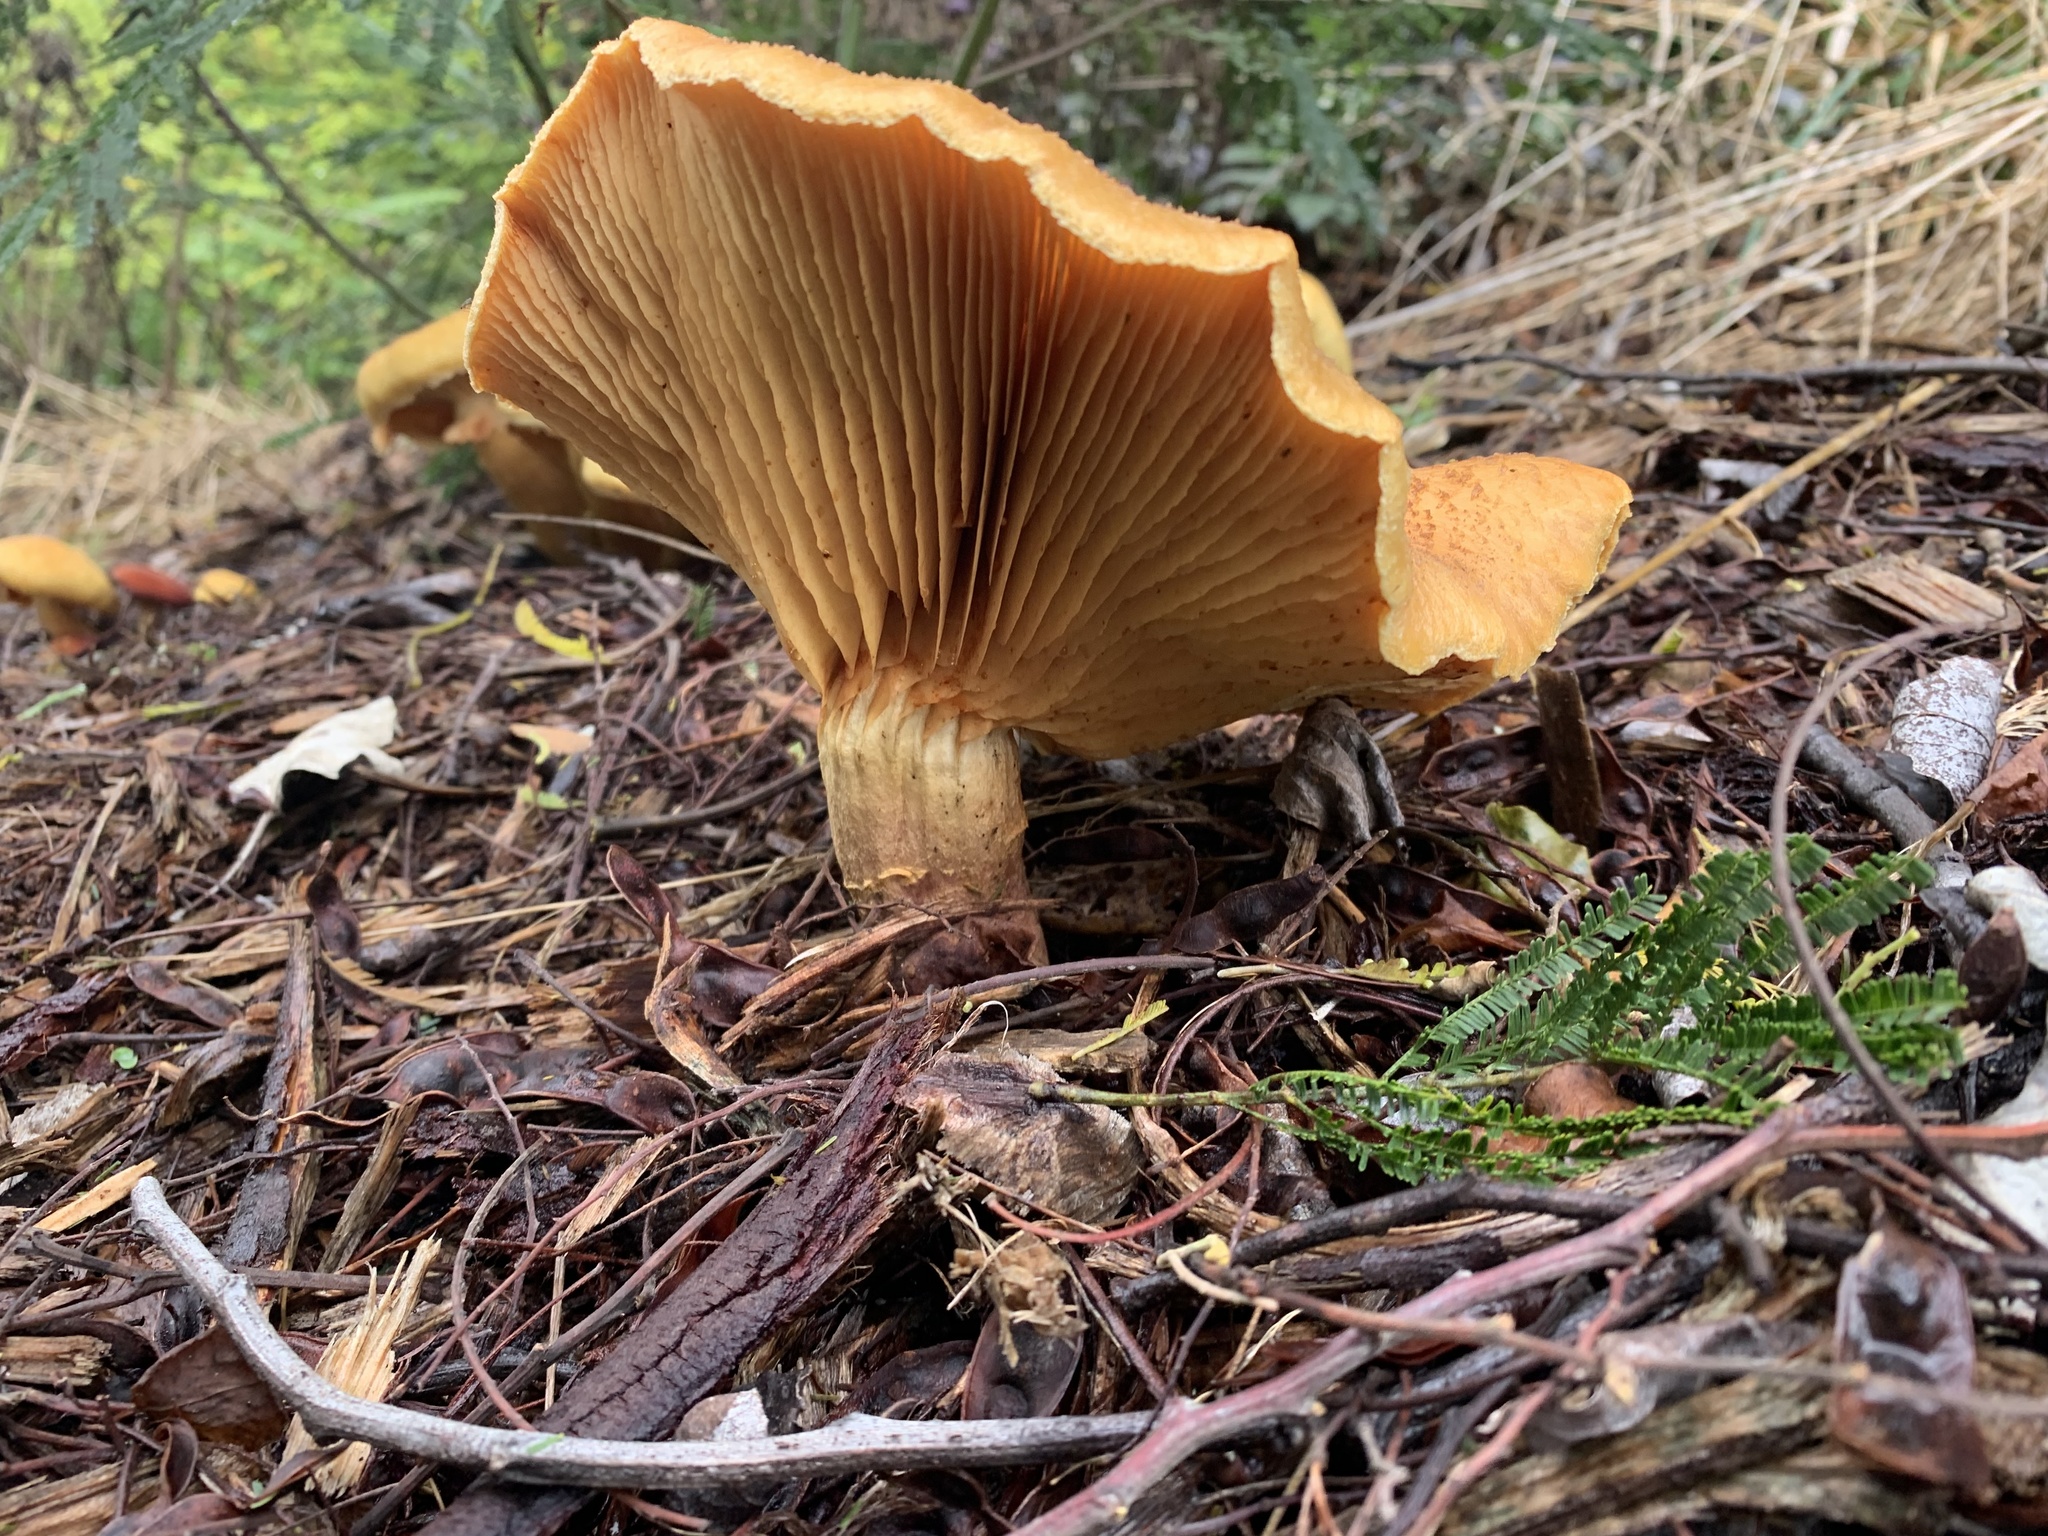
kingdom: Fungi
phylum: Basidiomycota
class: Agaricomycetes
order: Agaricales
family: Hymenogastraceae
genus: Gymnopilus
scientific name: Gymnopilus junonius
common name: Spectacular rustgill
